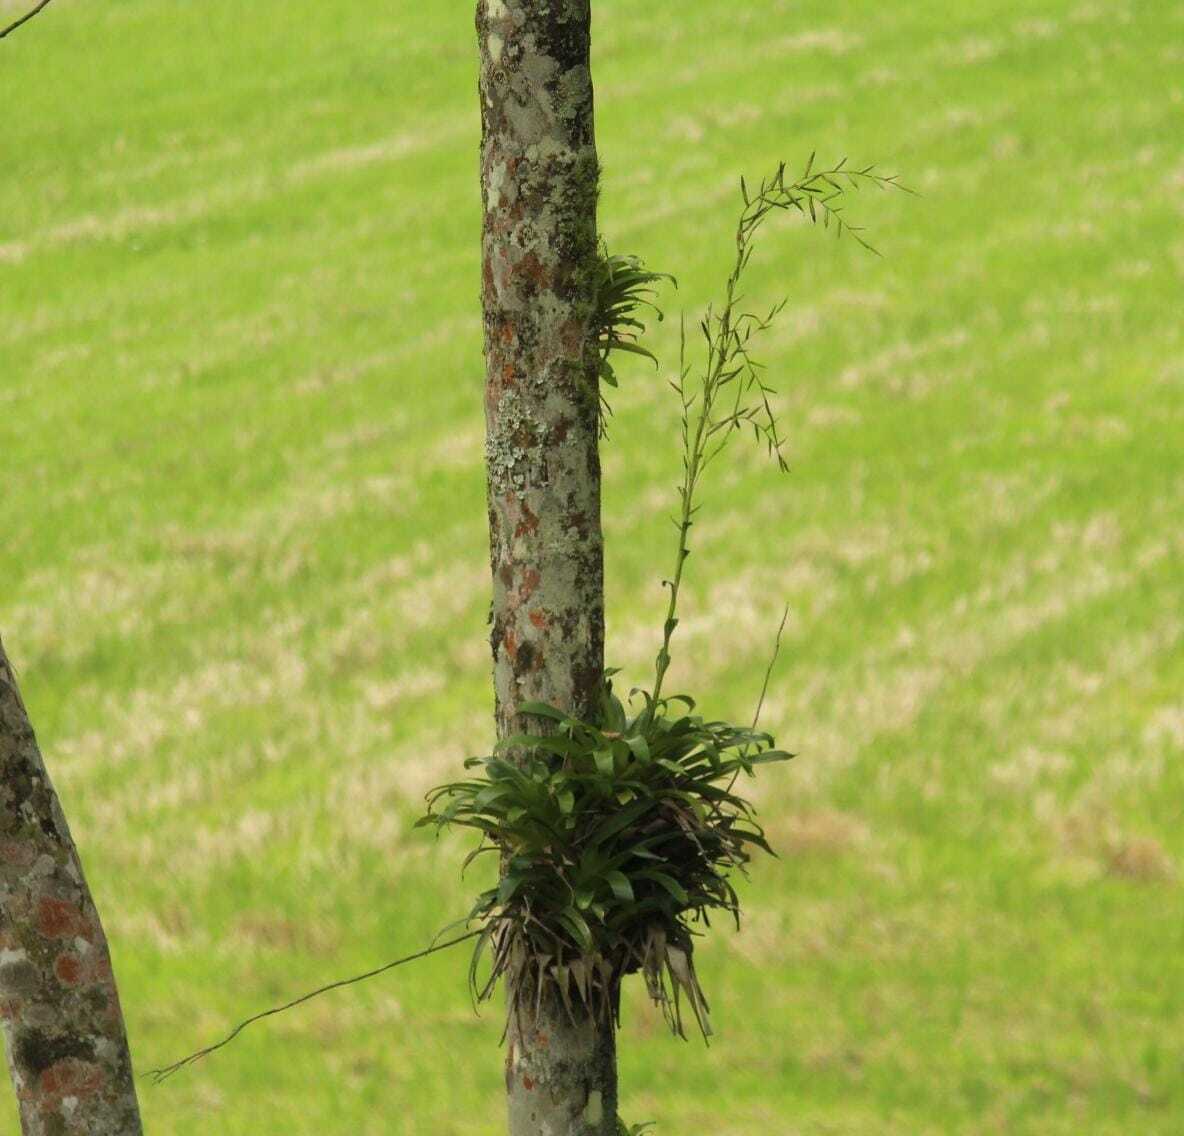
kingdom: Plantae
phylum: Tracheophyta
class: Liliopsida
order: Poales
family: Bromeliaceae
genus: Vriesea
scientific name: Vriesea rubroviridis
